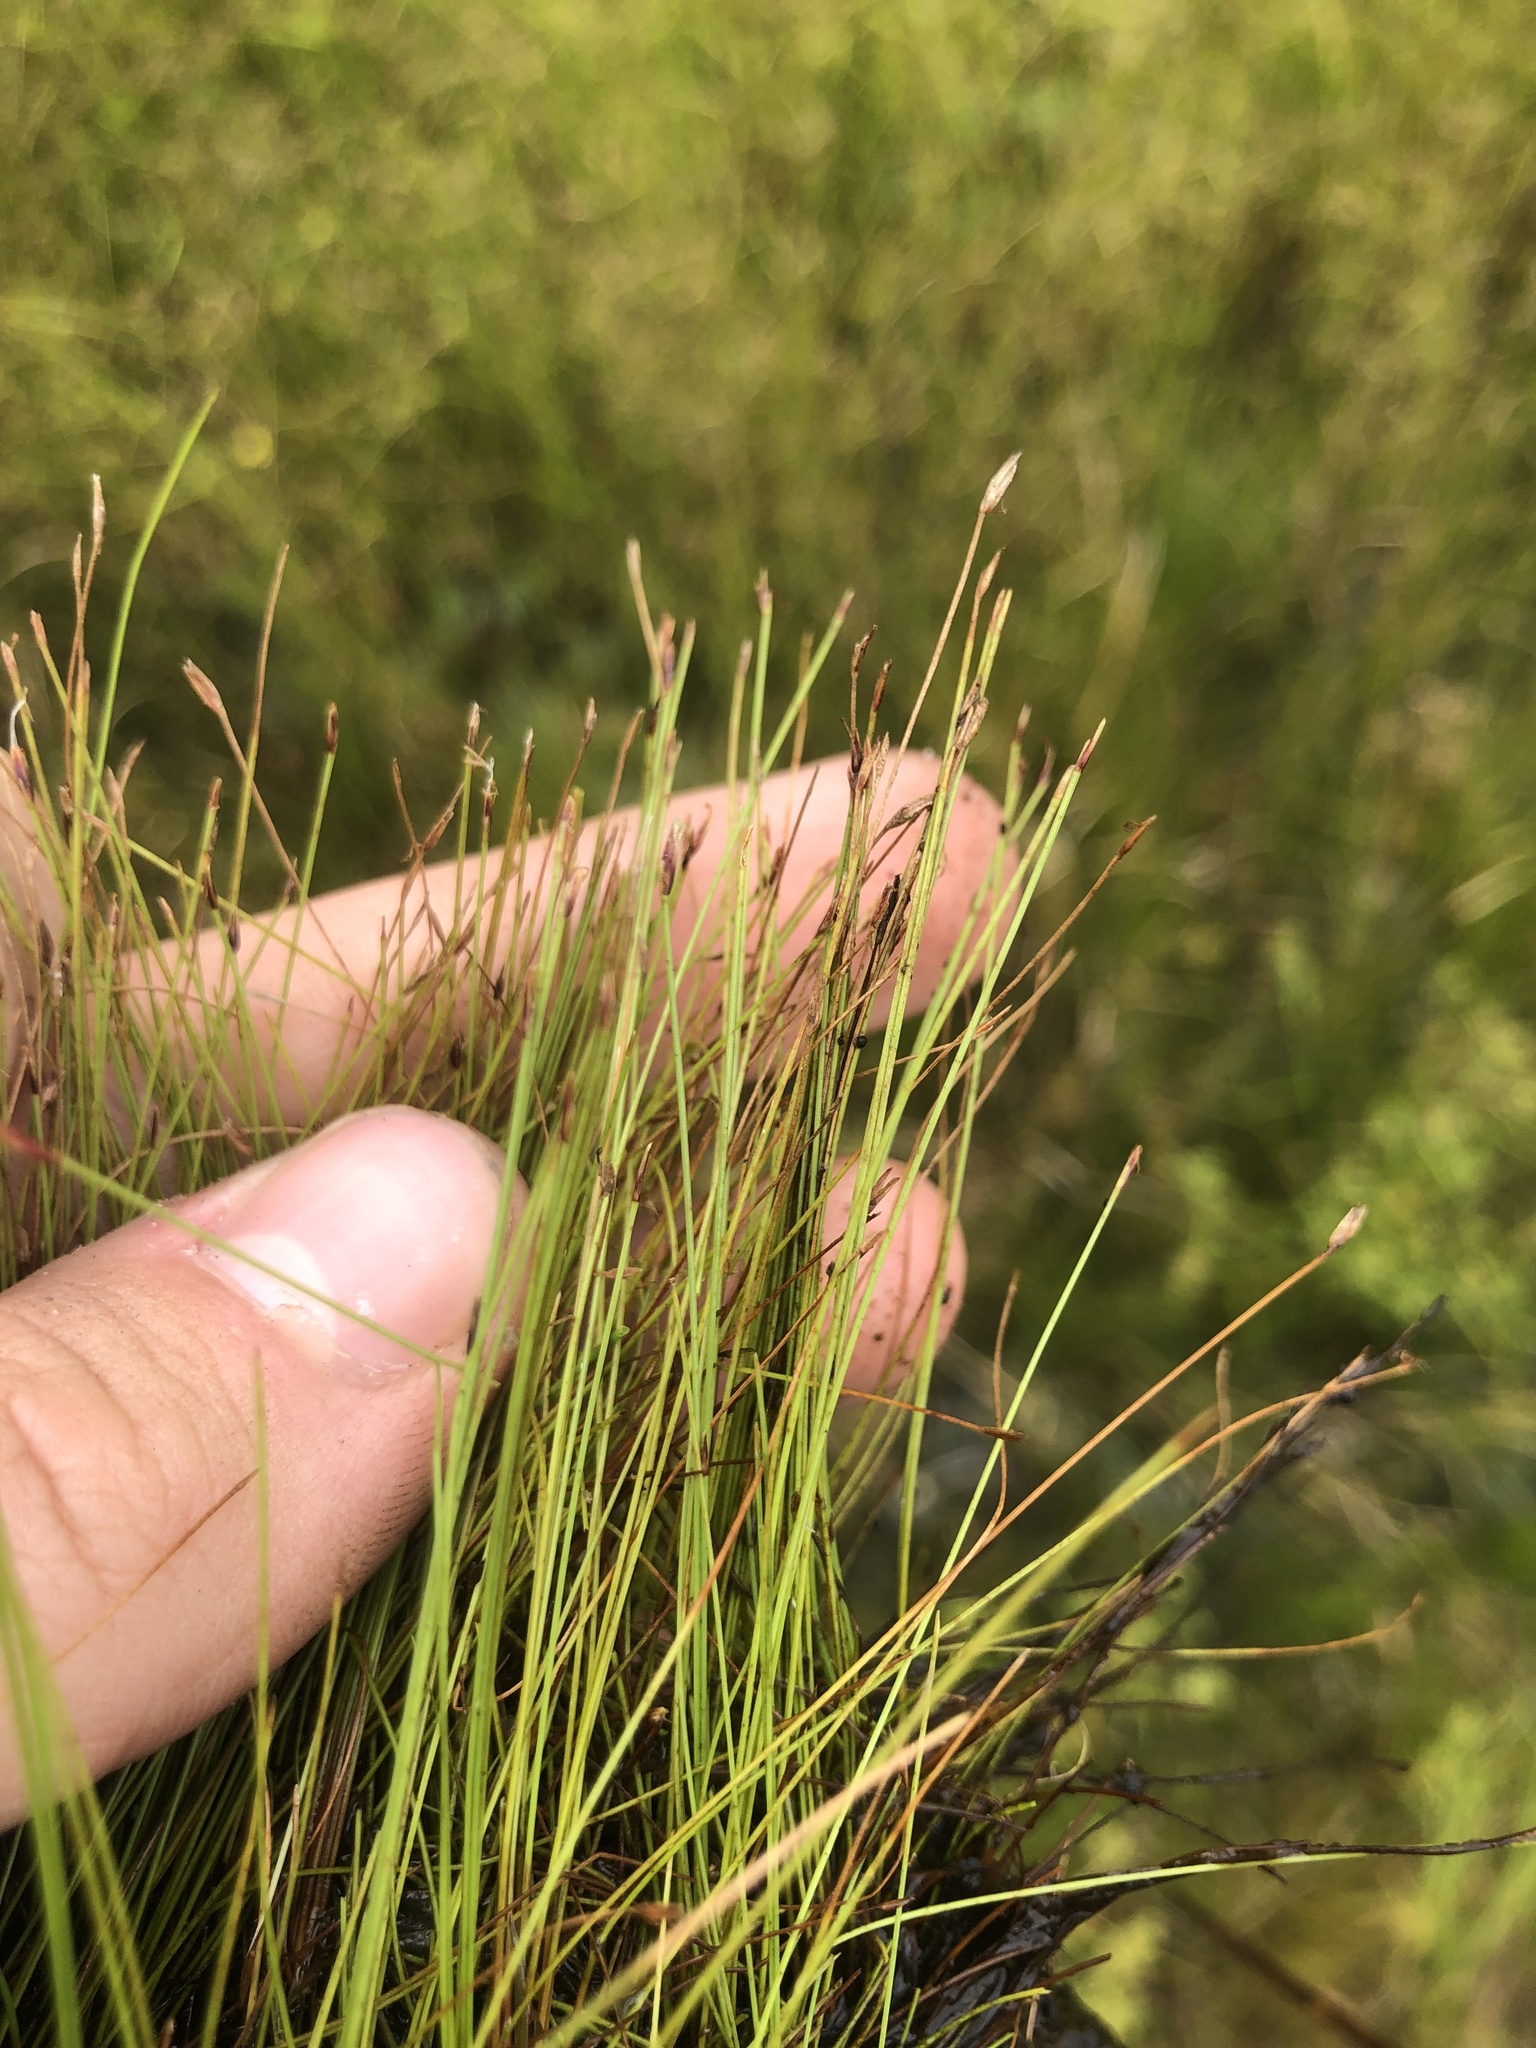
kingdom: Plantae
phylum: Tracheophyta
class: Liliopsida
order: Poales
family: Cyperaceae
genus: Eleocharis
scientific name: Eleocharis baldwinii
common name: Baldwin's spike-rush
